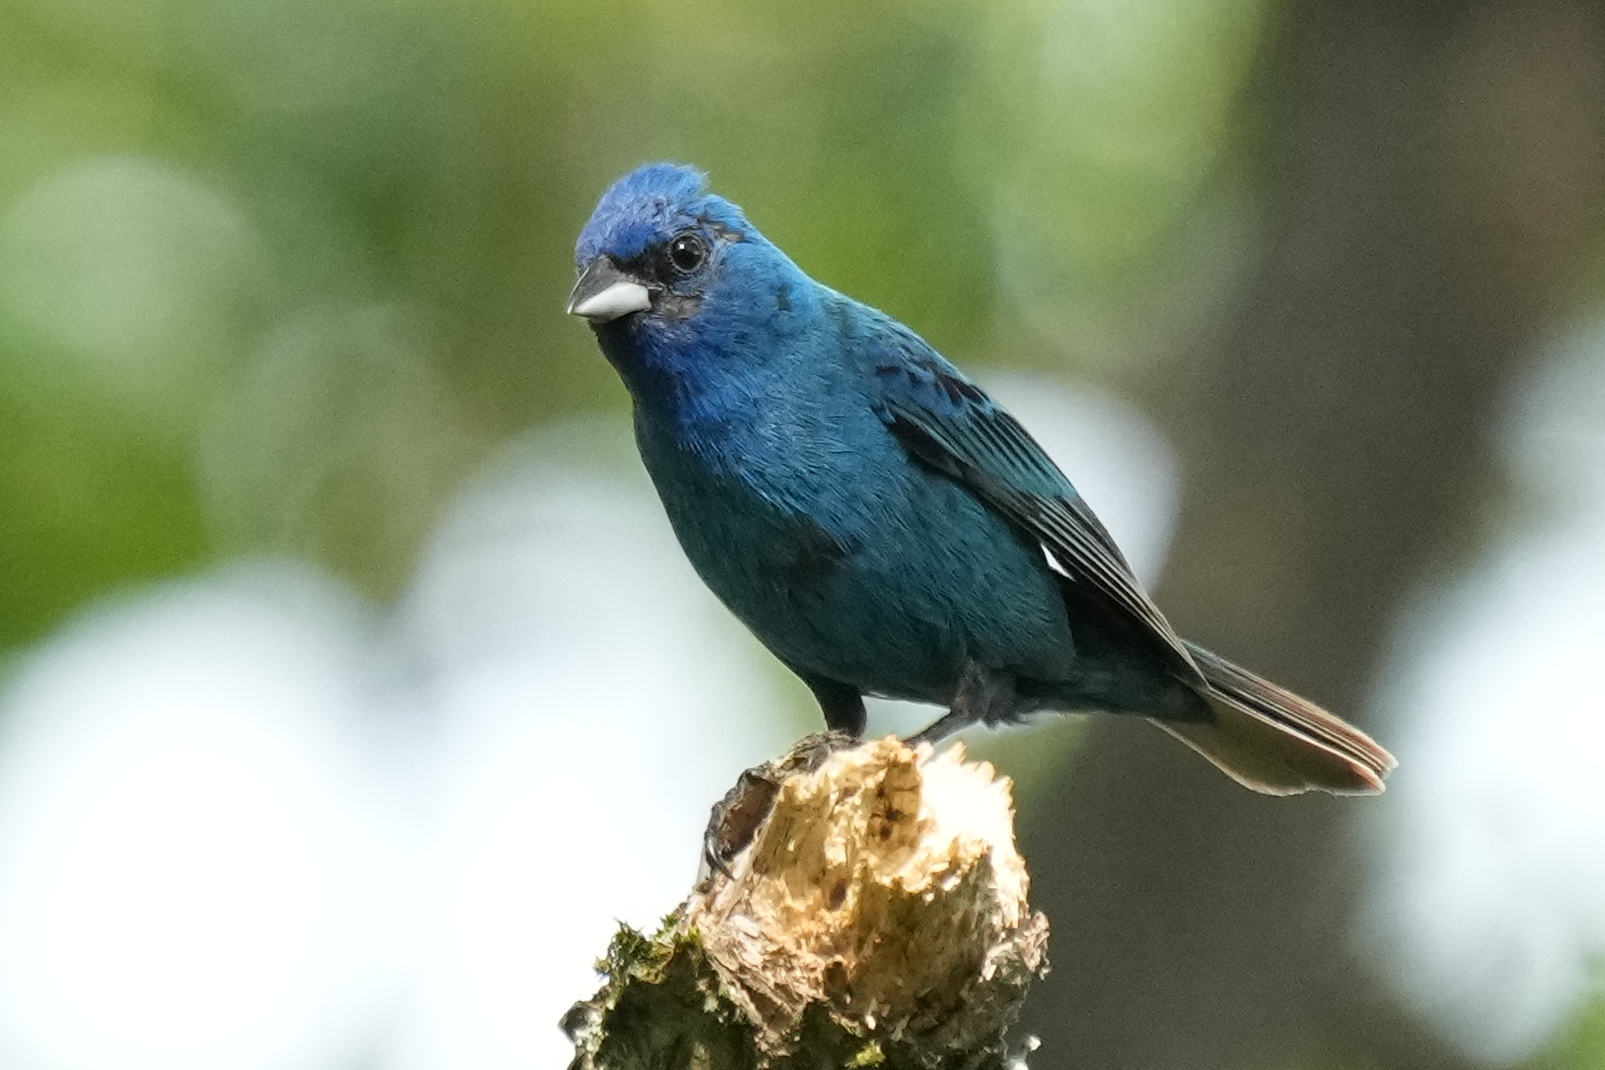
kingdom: Animalia
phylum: Chordata
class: Aves
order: Passeriformes
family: Cardinalidae
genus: Passerina
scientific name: Passerina cyanea
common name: Indigo bunting
